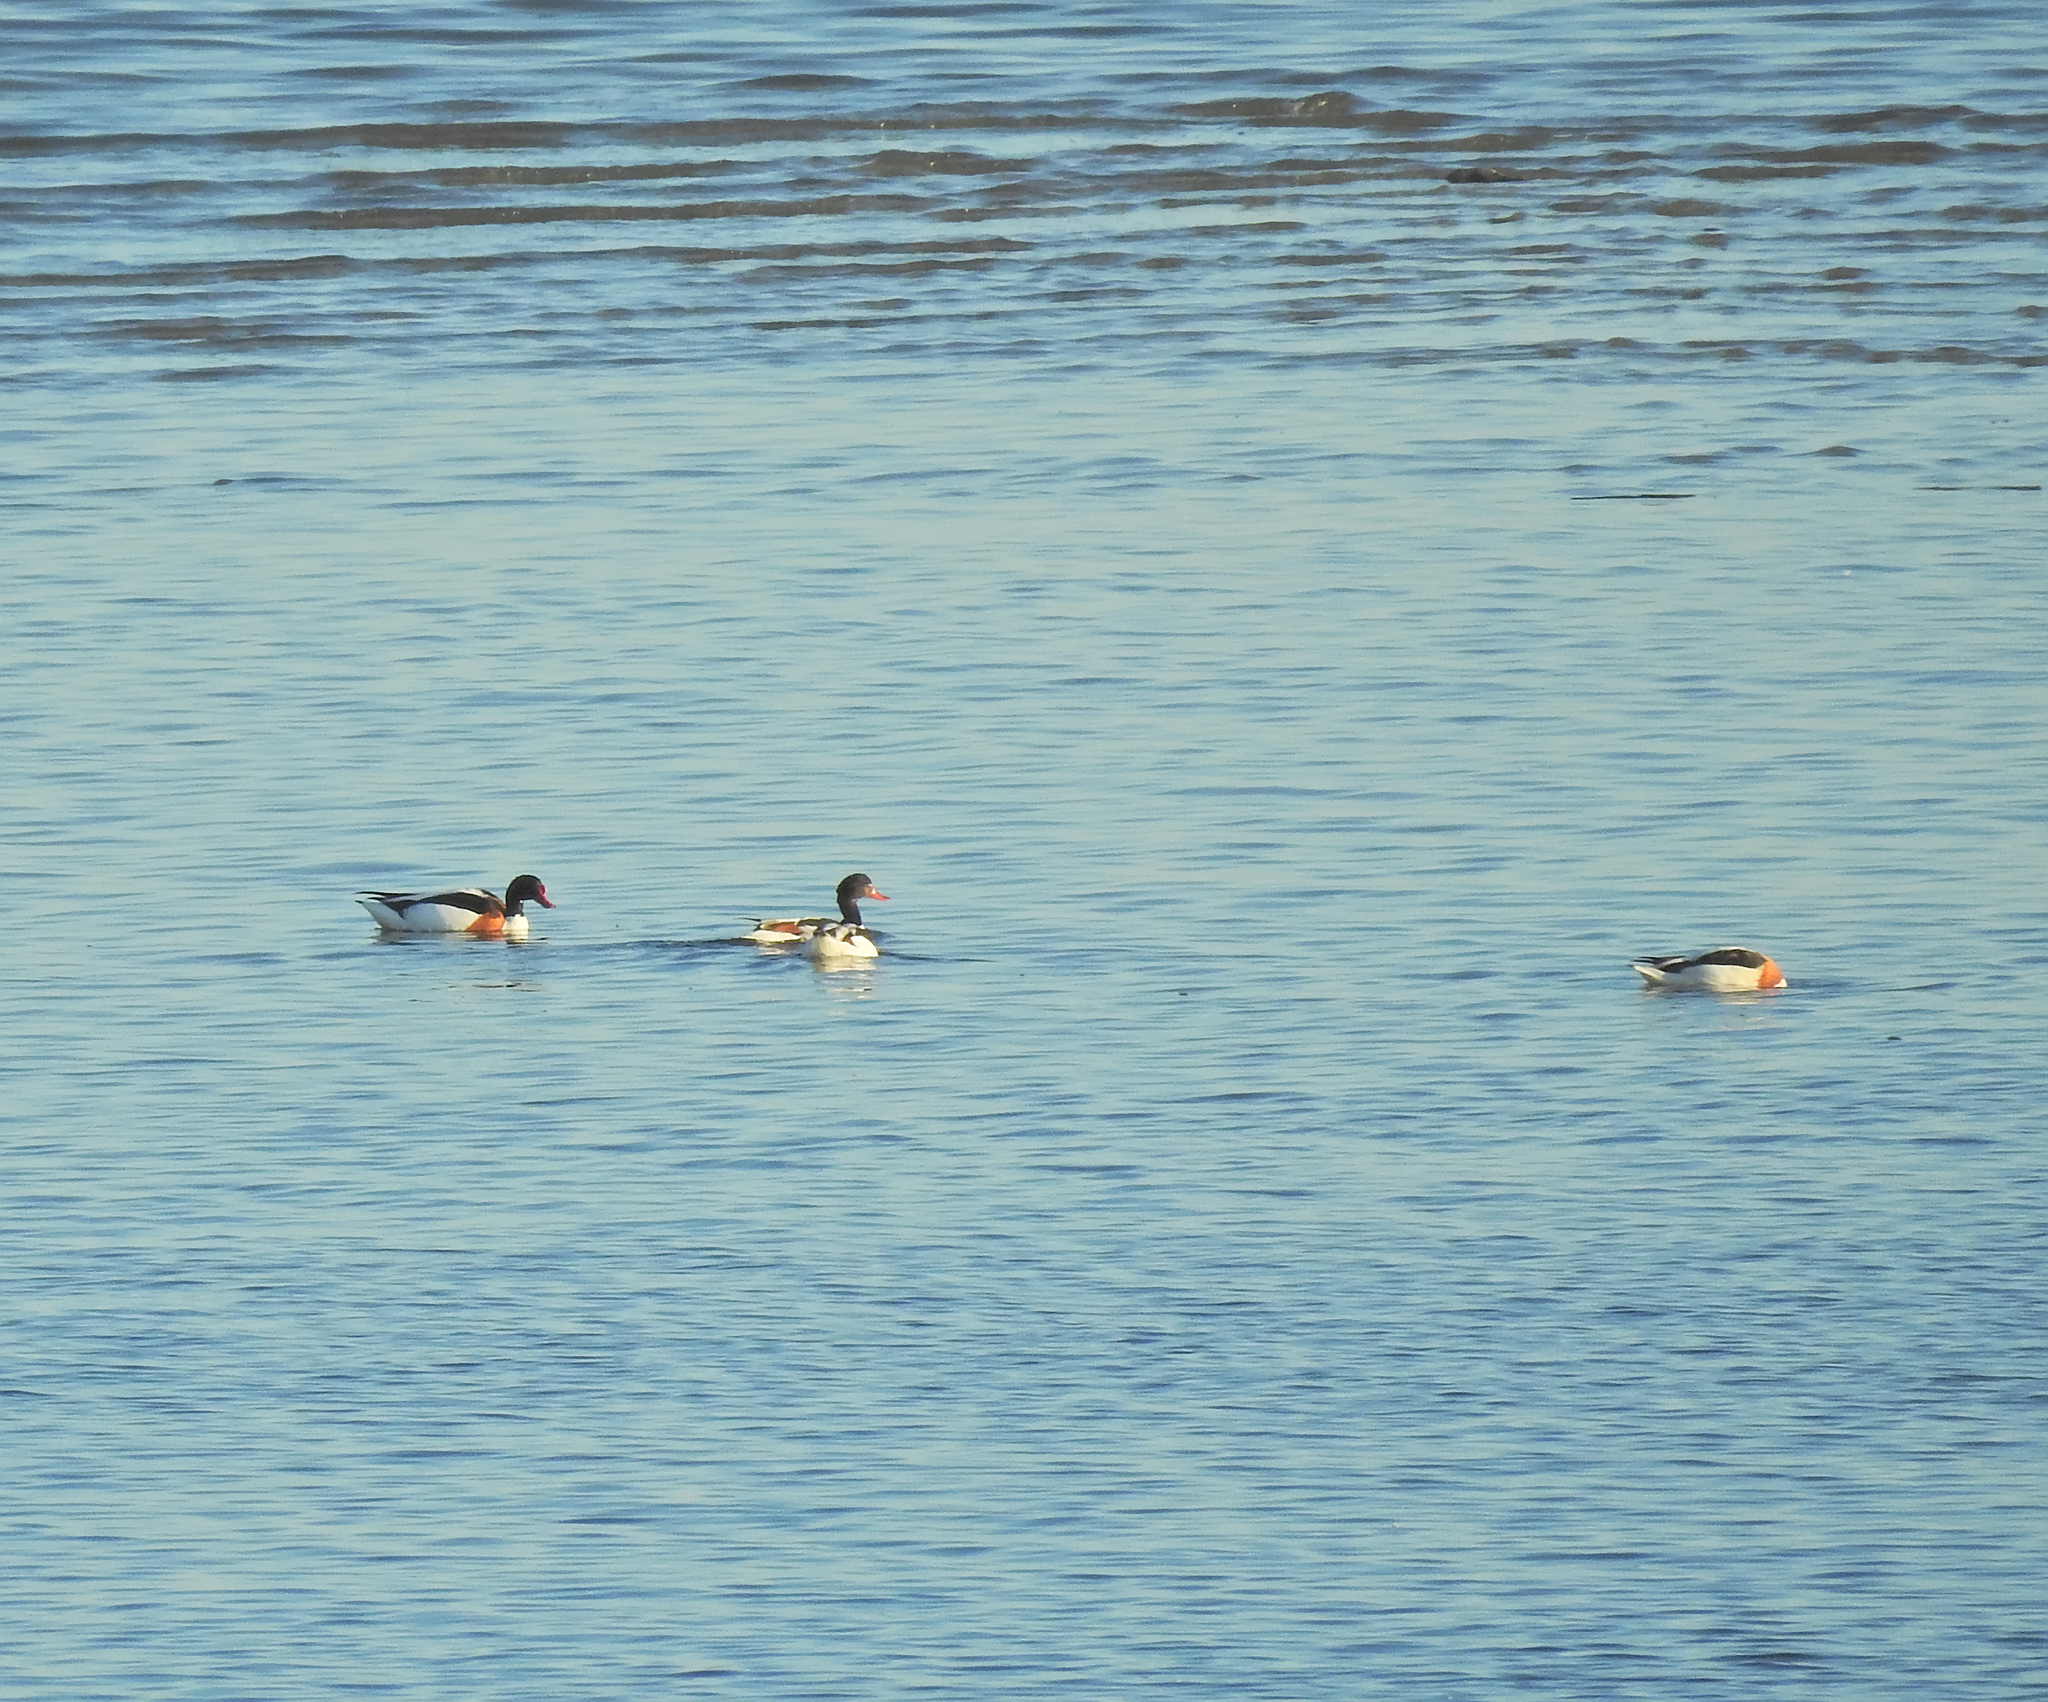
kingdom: Animalia
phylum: Chordata
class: Aves
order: Anseriformes
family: Anatidae
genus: Tadorna
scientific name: Tadorna tadorna
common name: Common shelduck
